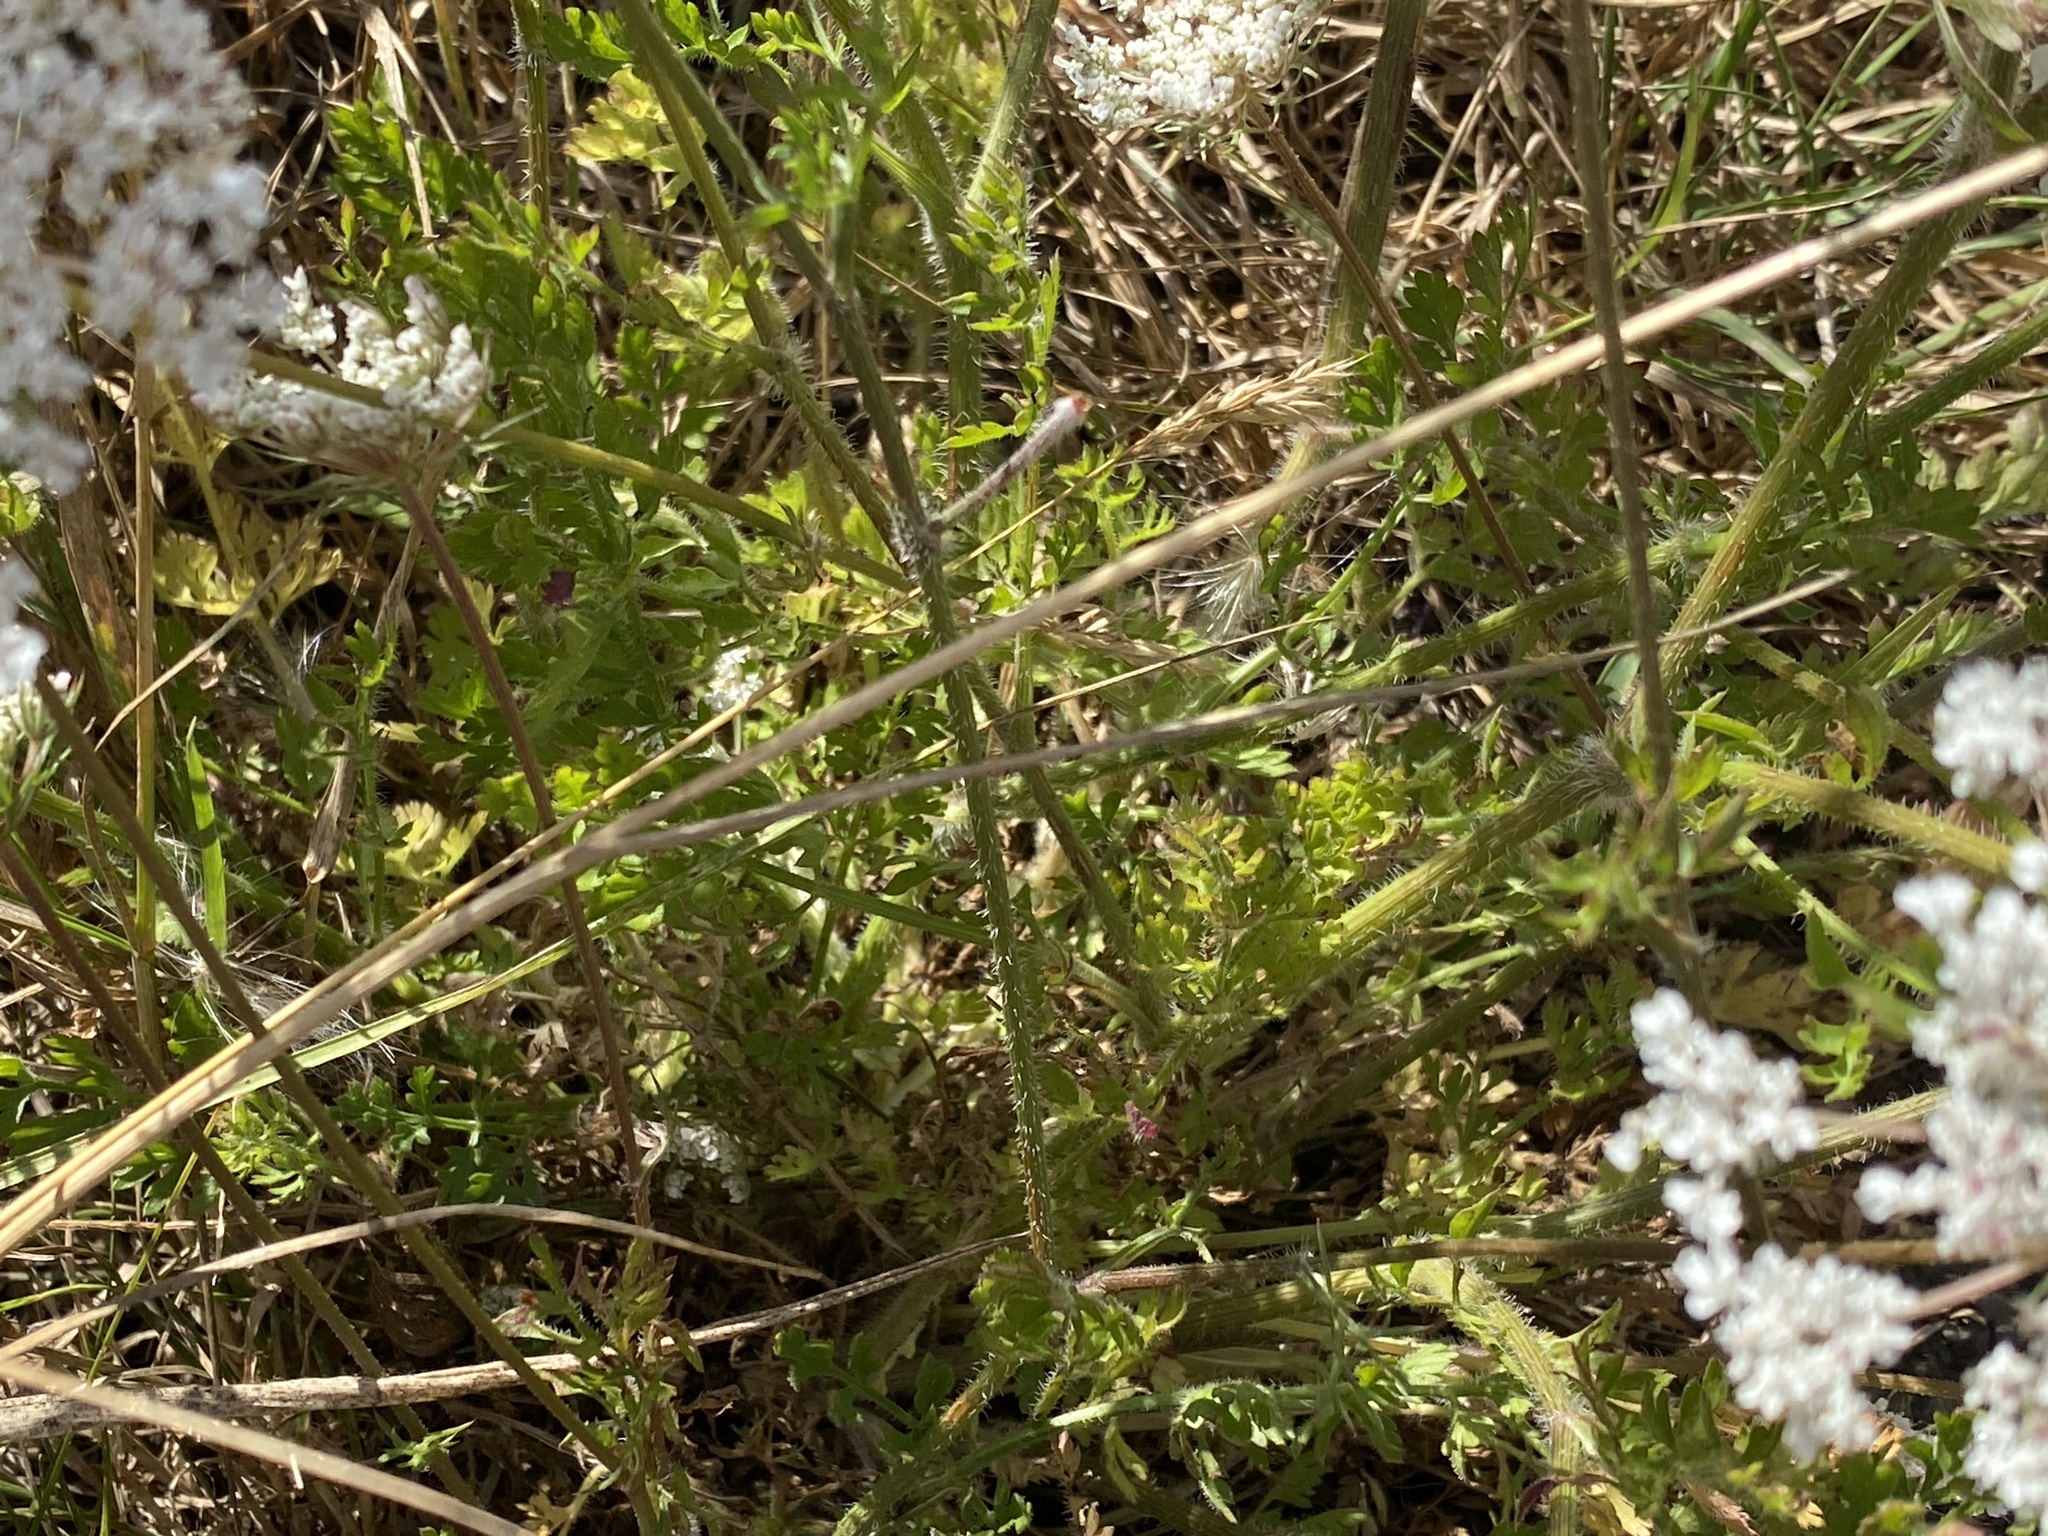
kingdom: Plantae
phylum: Tracheophyta
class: Magnoliopsida
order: Apiales
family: Apiaceae
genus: Daucus
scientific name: Daucus carota
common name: Wild carrot
